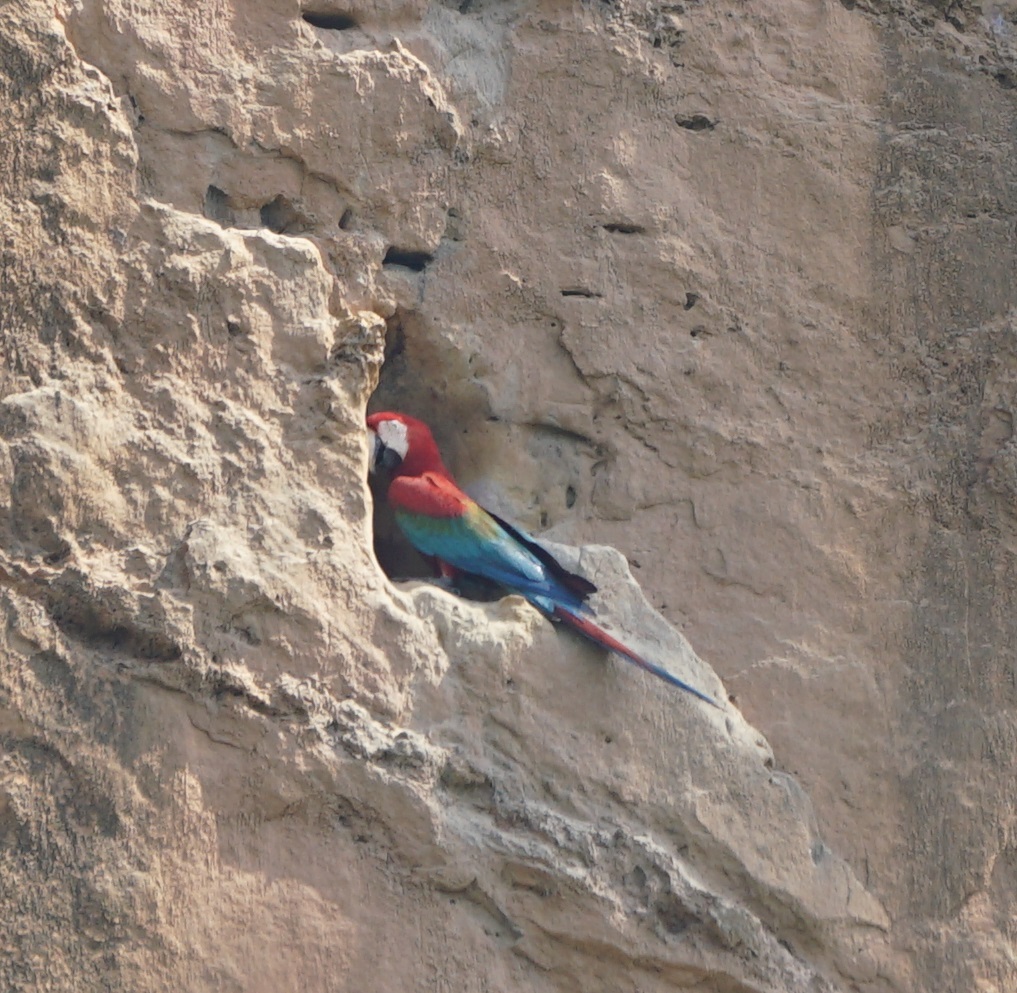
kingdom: Animalia
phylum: Chordata
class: Aves
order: Psittaciformes
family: Psittacidae
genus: Ara
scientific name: Ara chloropterus
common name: Red-and-green macaw
